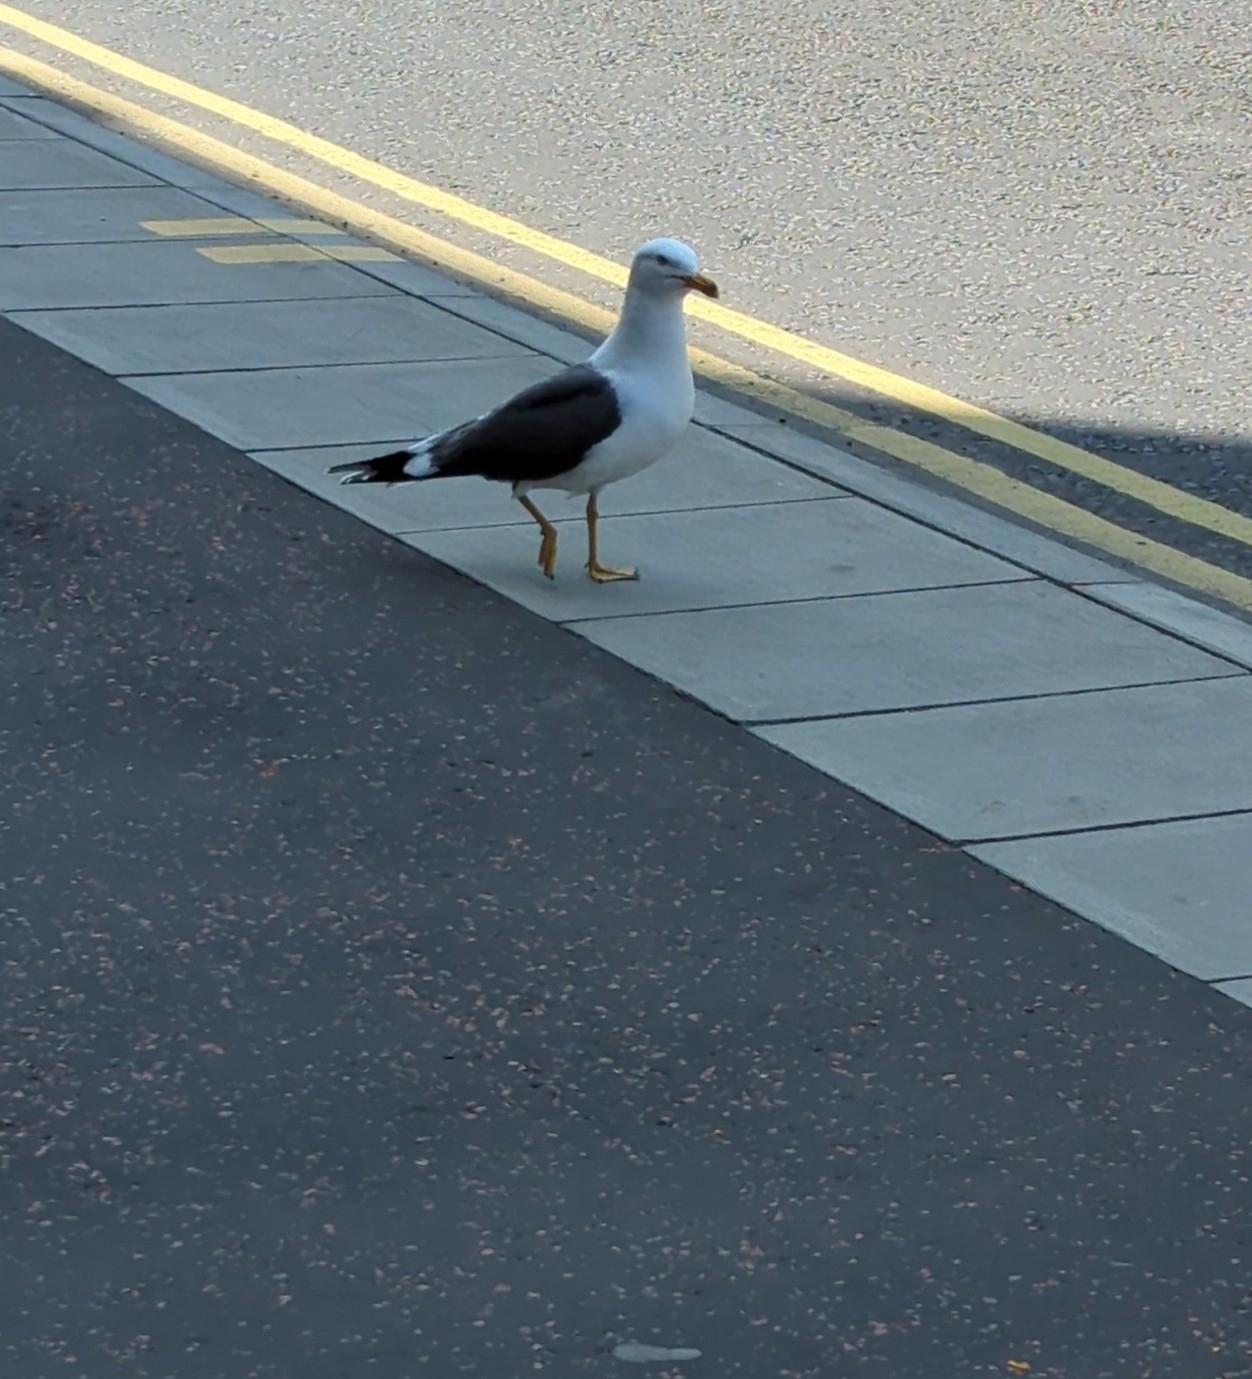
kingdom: Animalia
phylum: Chordata
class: Aves
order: Charadriiformes
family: Laridae
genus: Larus
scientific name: Larus fuscus
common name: Lesser black-backed gull
